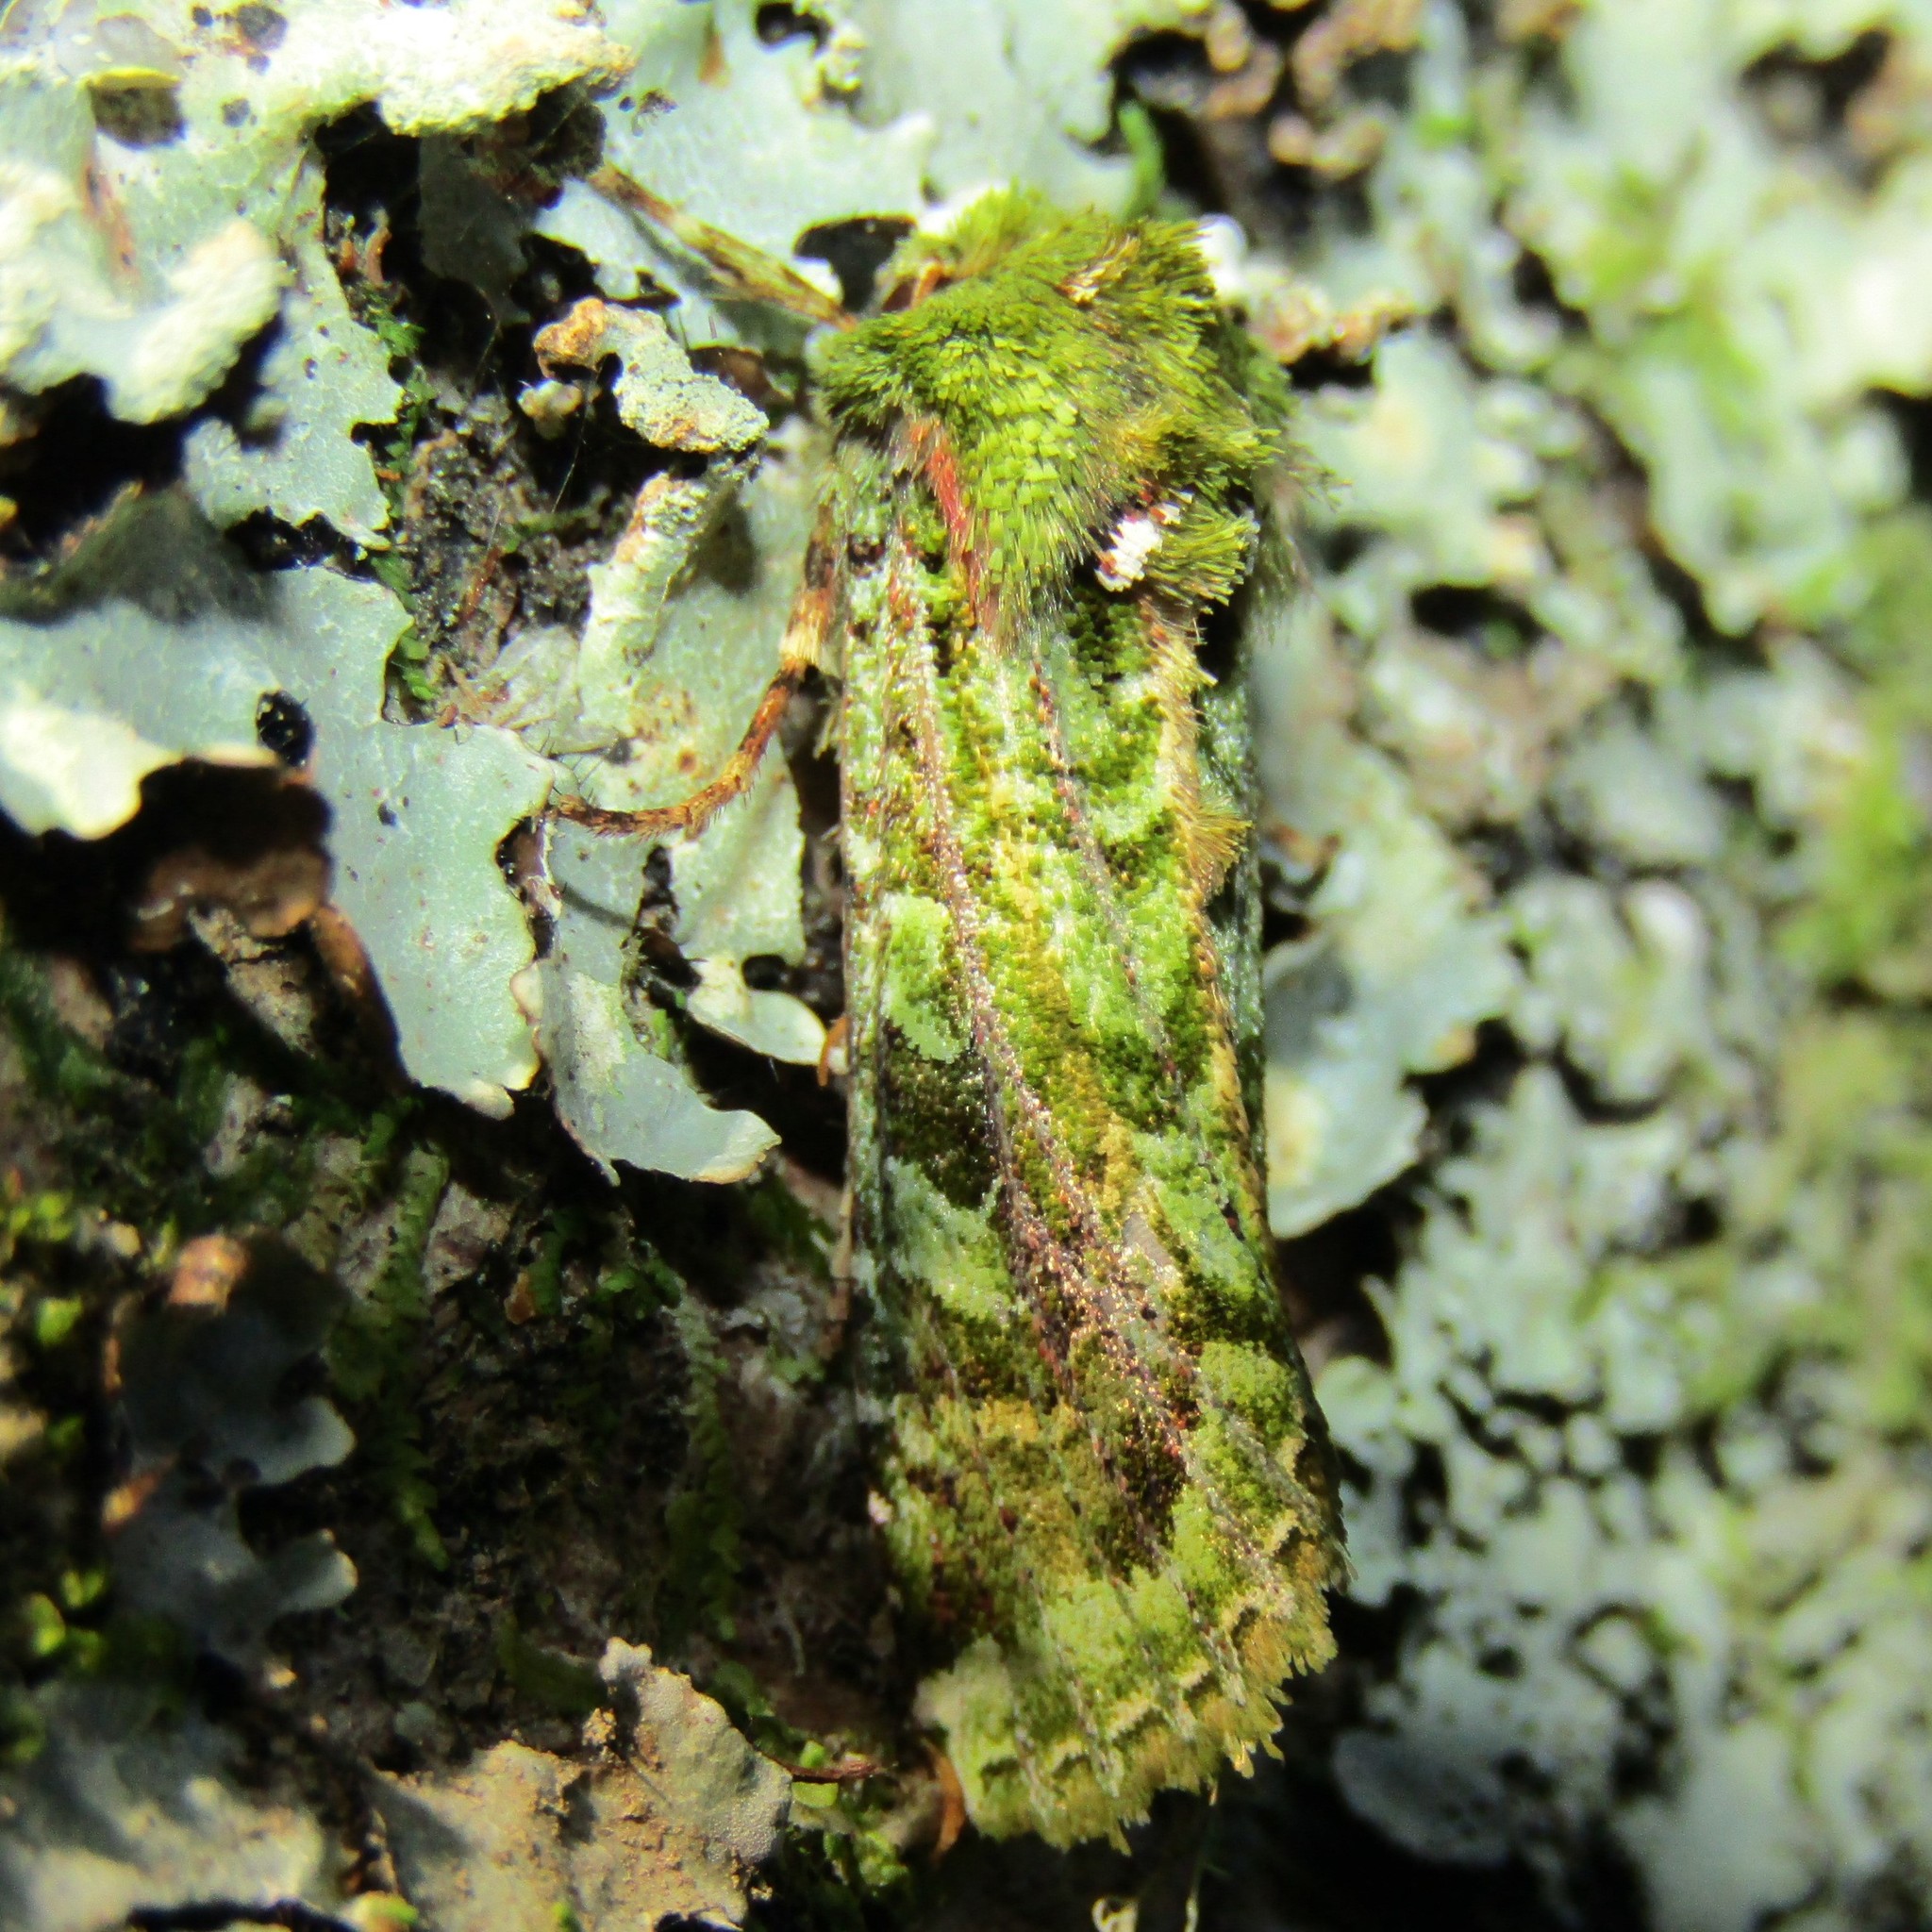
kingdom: Animalia
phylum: Arthropoda
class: Insecta
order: Lepidoptera
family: Noctuidae
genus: Feredayia
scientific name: Feredayia grammosa
